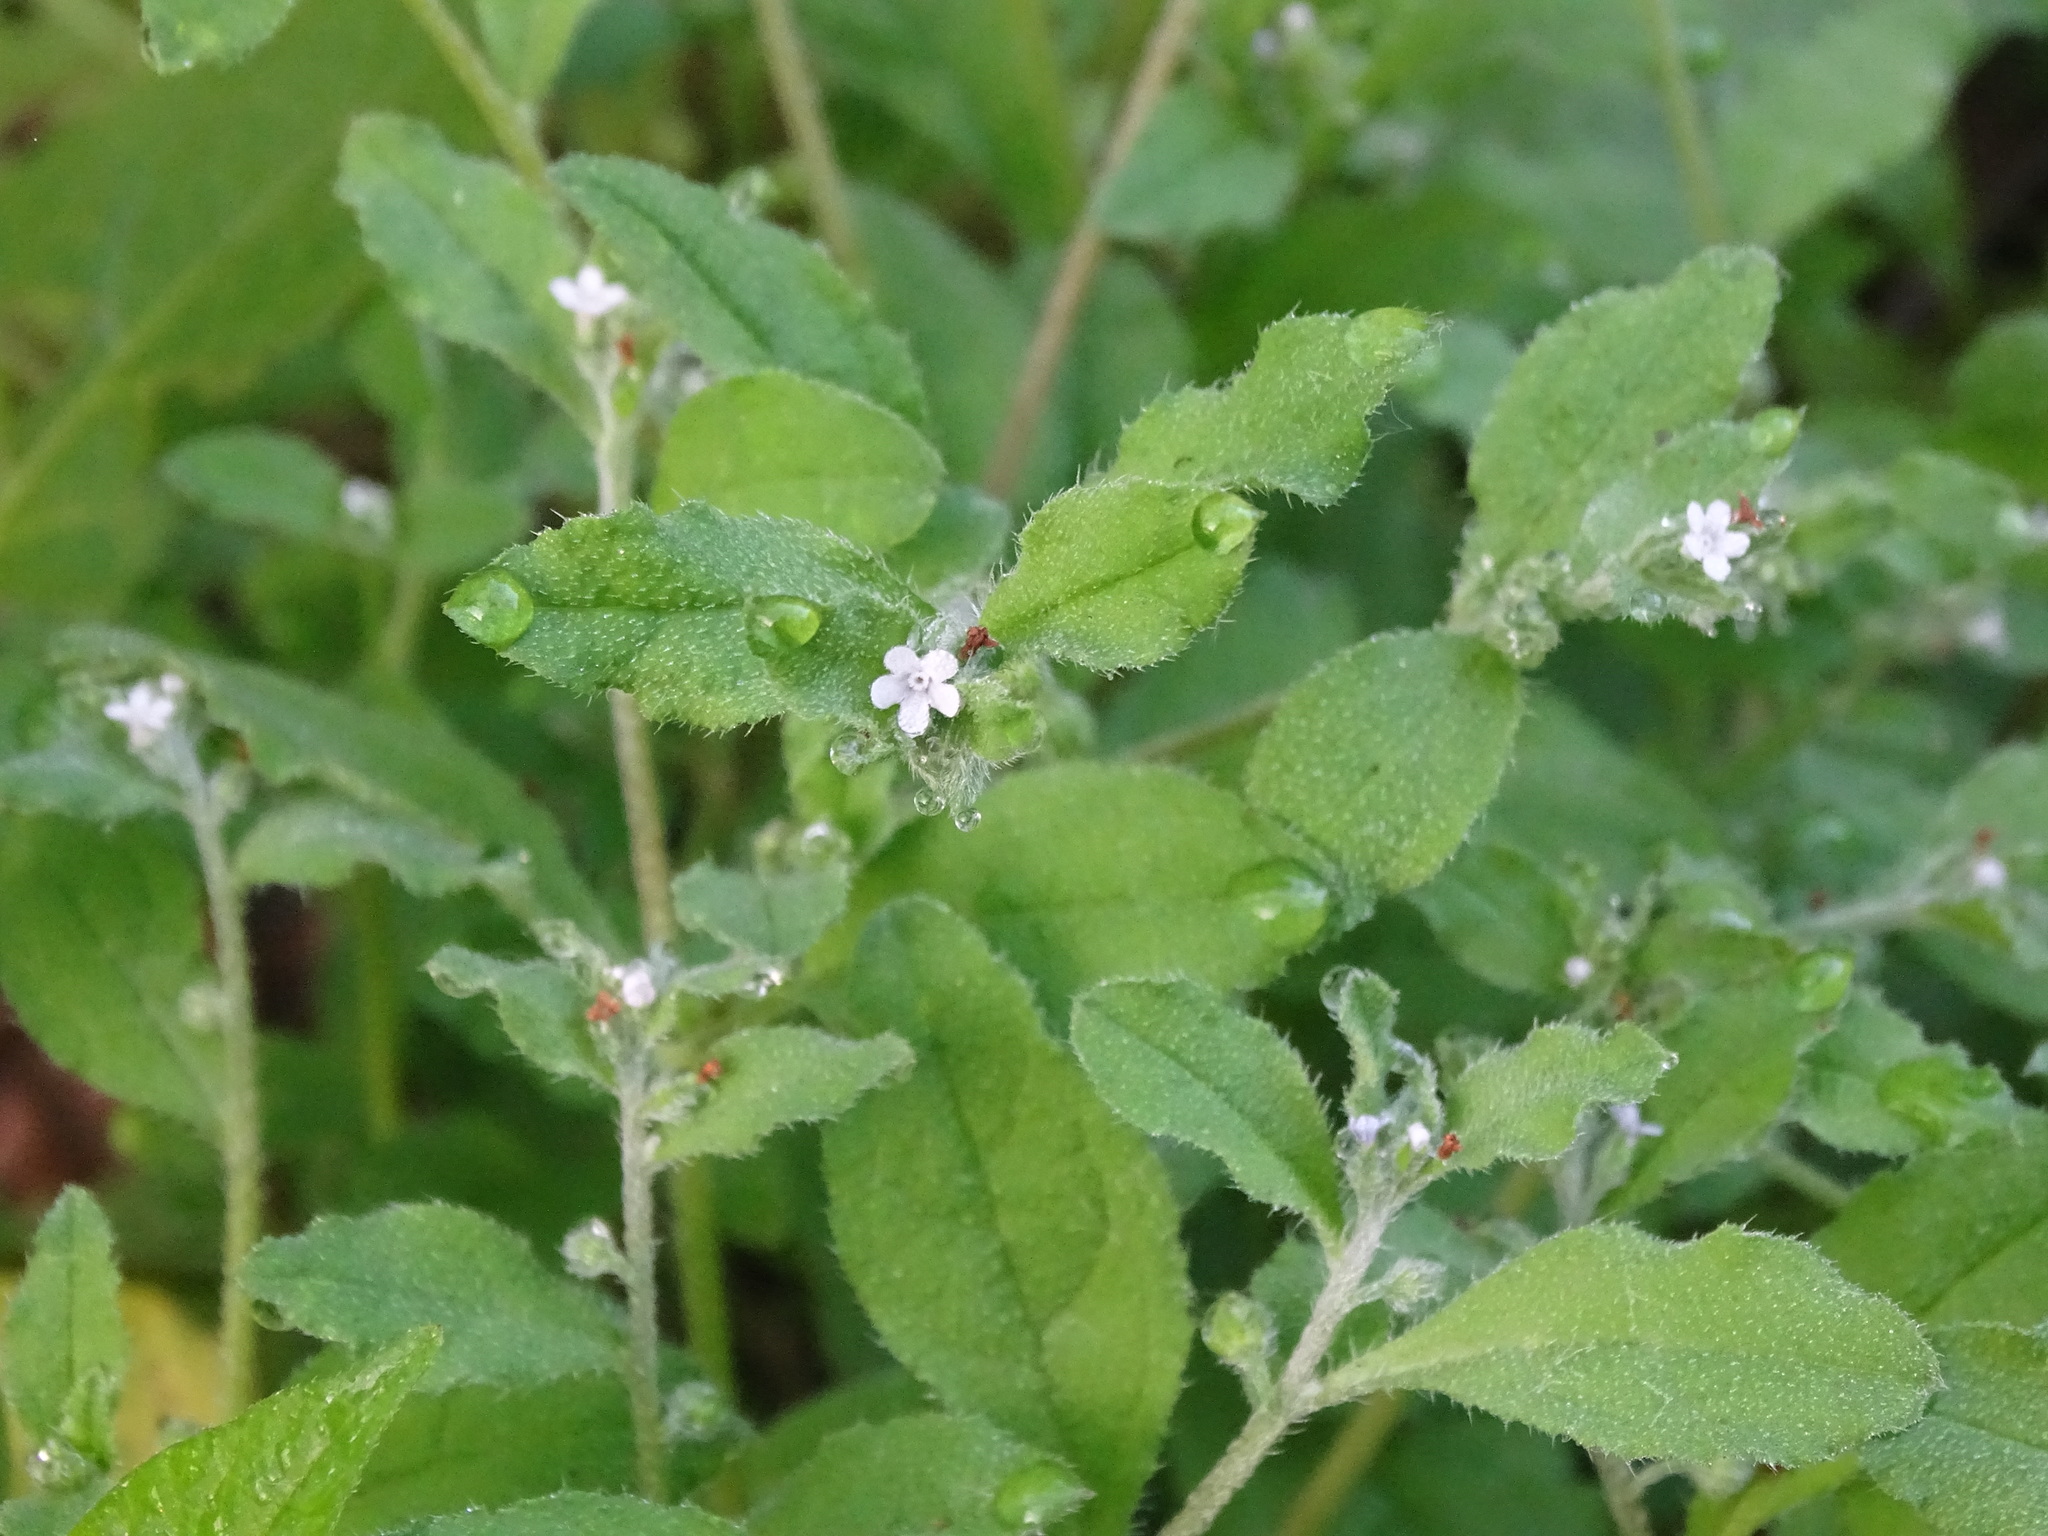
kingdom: Plantae
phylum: Tracheophyta
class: Magnoliopsida
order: Boraginales
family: Boraginaceae
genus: Bothriospermum
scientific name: Bothriospermum zeylanicum
